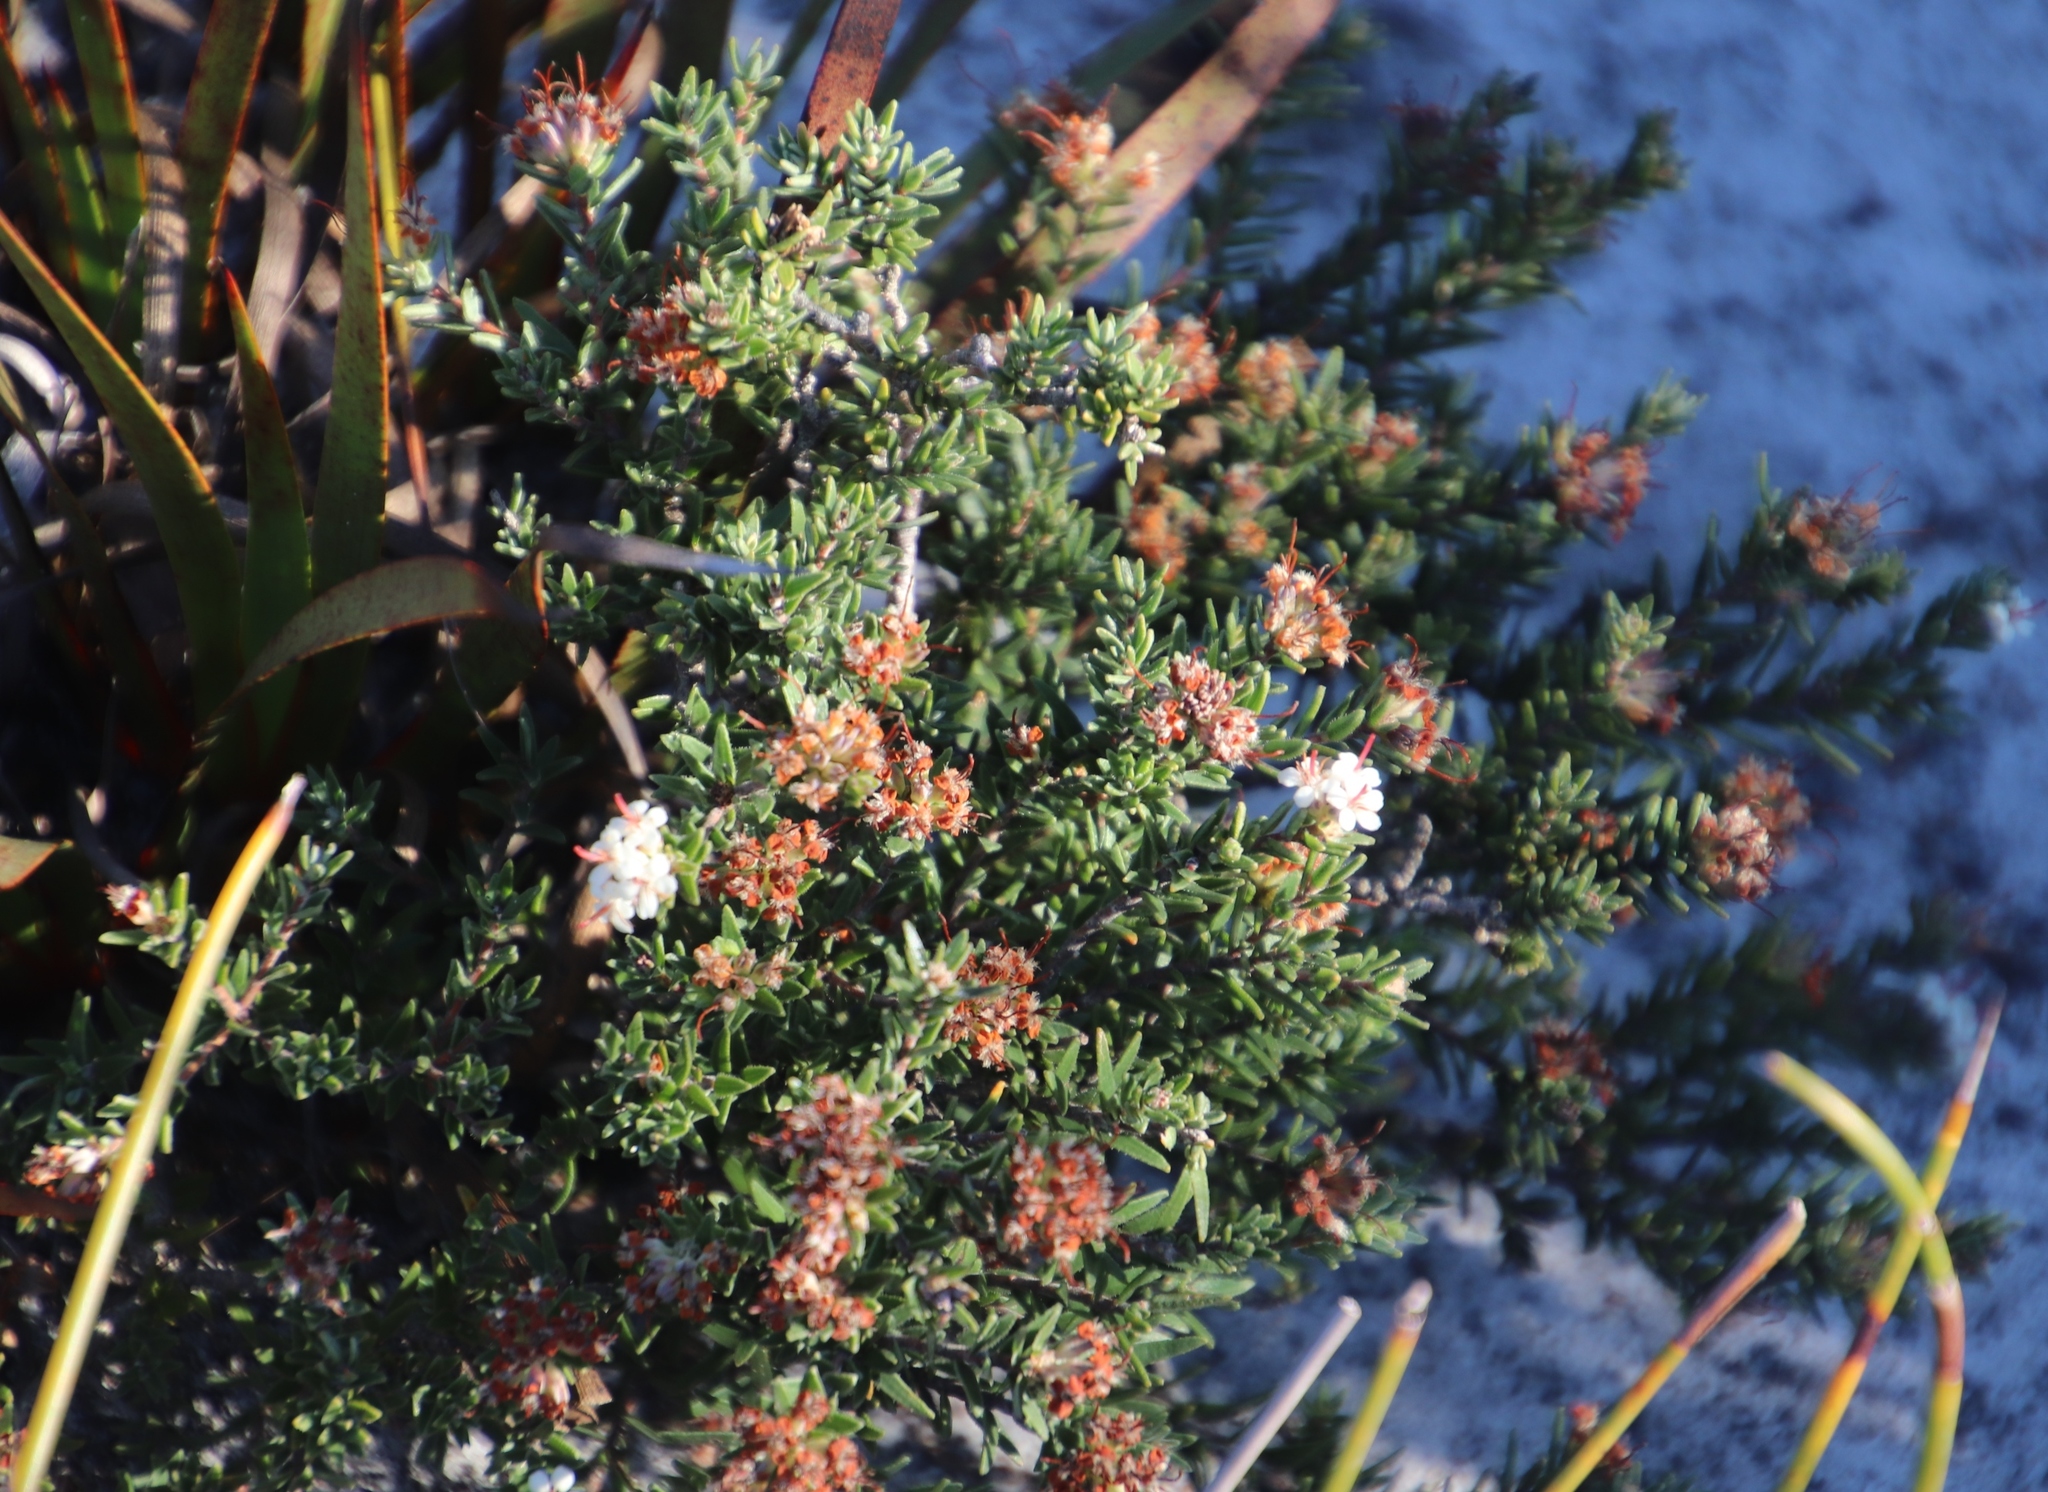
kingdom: Plantae
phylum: Tracheophyta
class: Magnoliopsida
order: Sapindales
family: Rutaceae
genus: Macrostylis
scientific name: Macrostylis villosa
